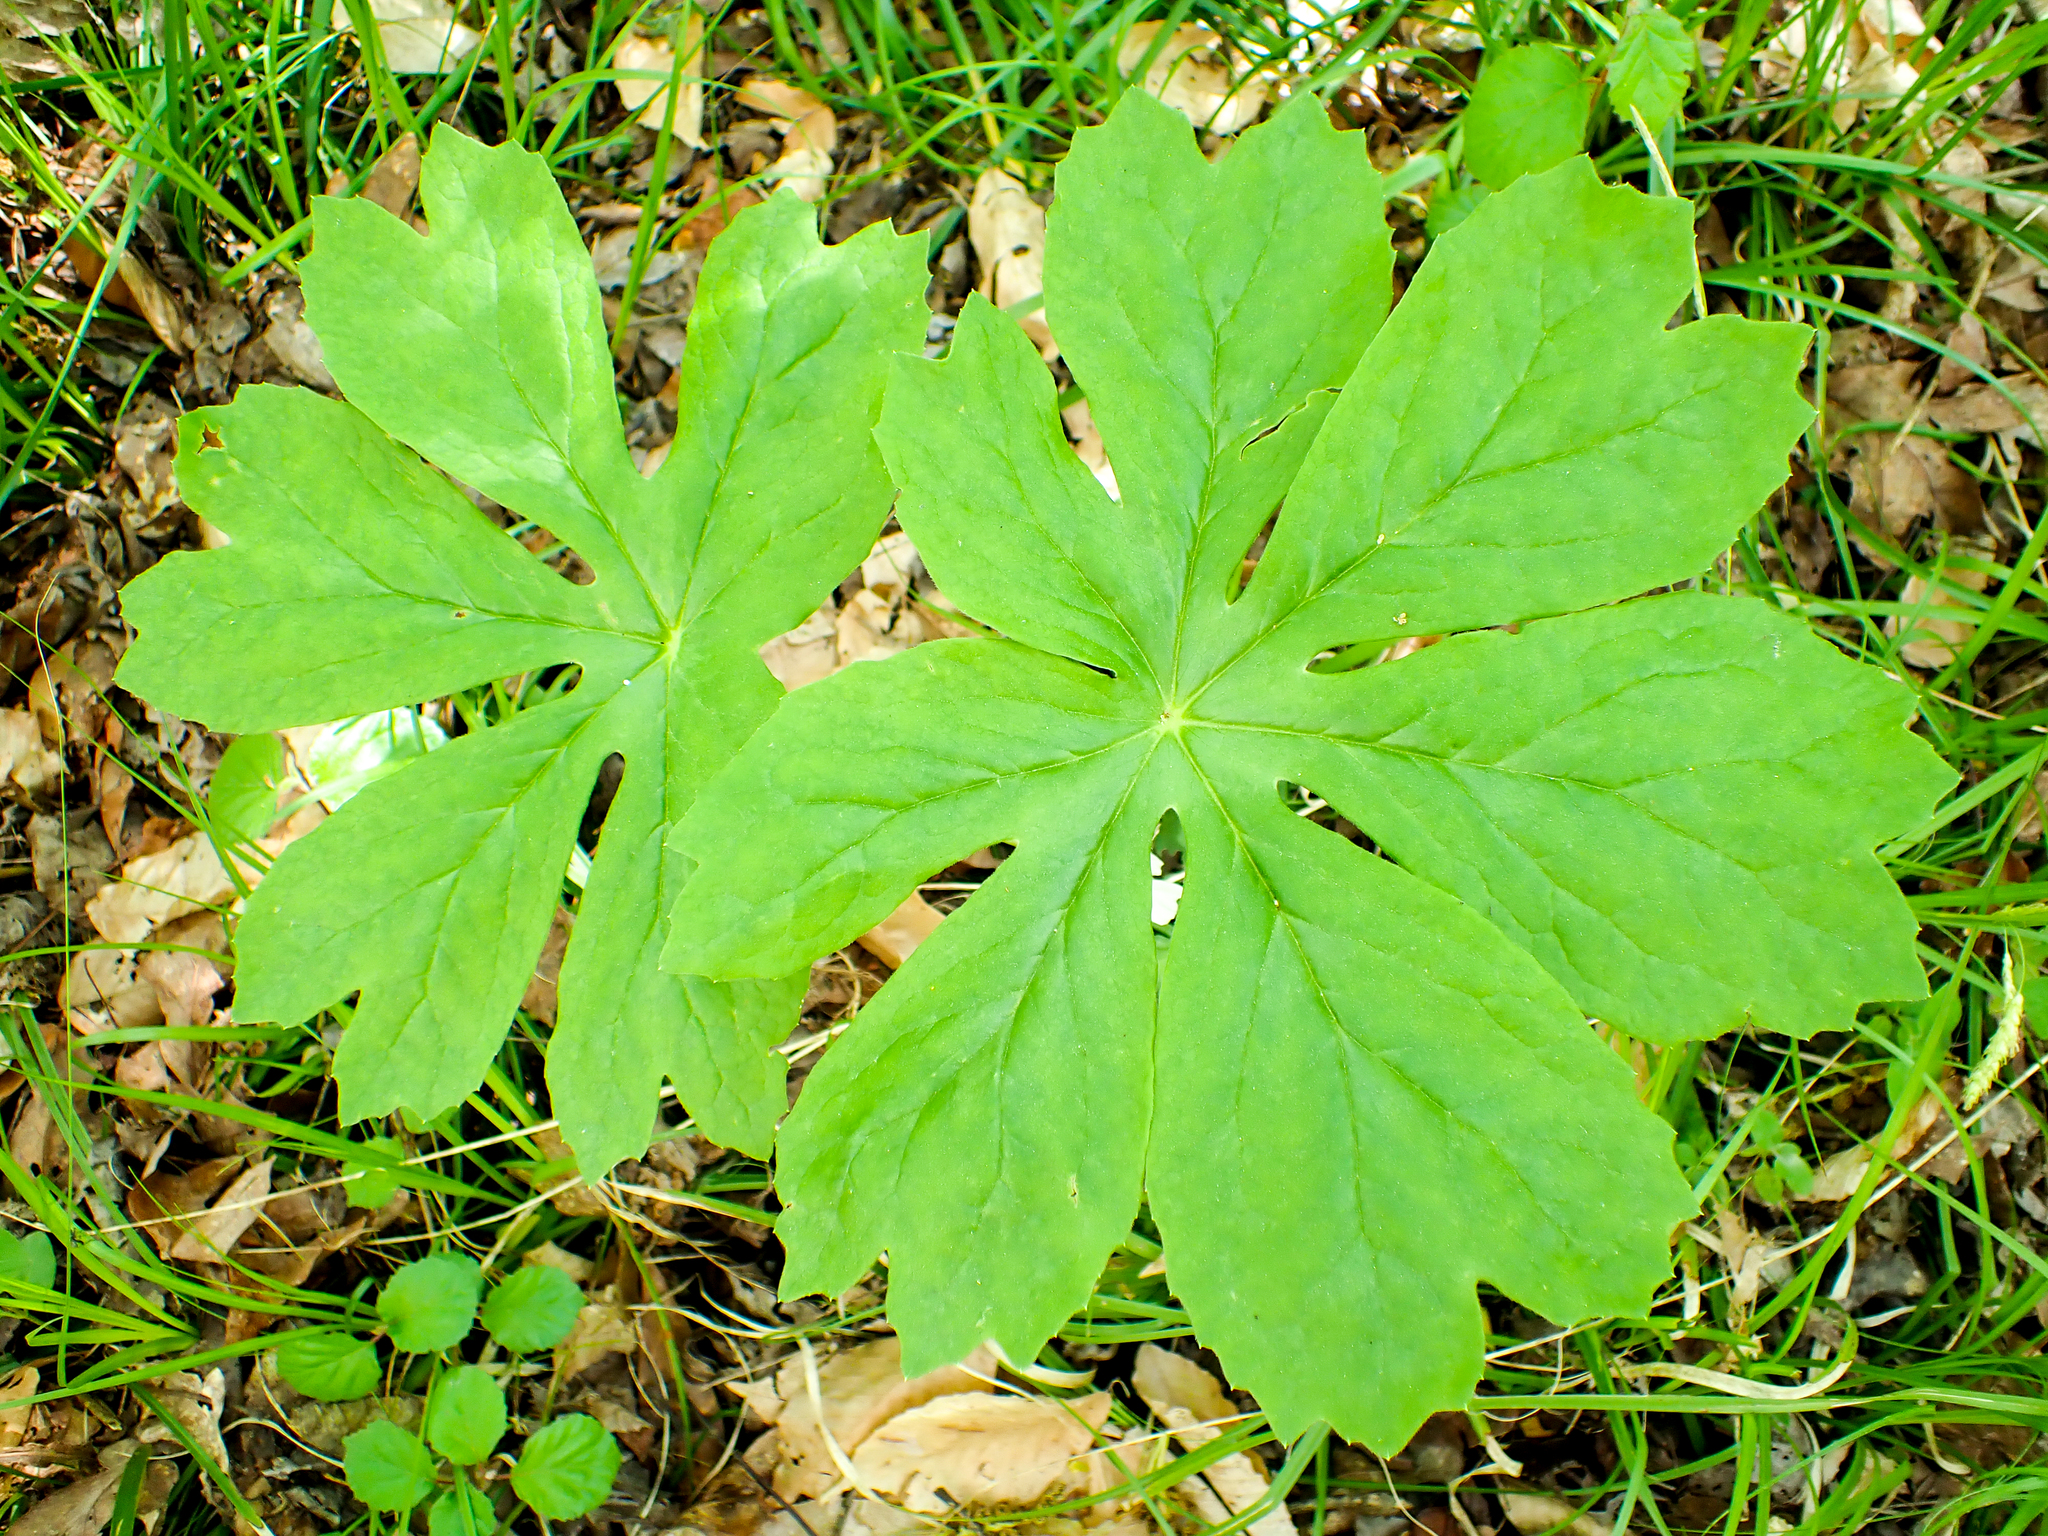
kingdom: Plantae
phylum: Tracheophyta
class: Magnoliopsida
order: Ranunculales
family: Berberidaceae
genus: Podophyllum
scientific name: Podophyllum peltatum
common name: Wild mandrake
